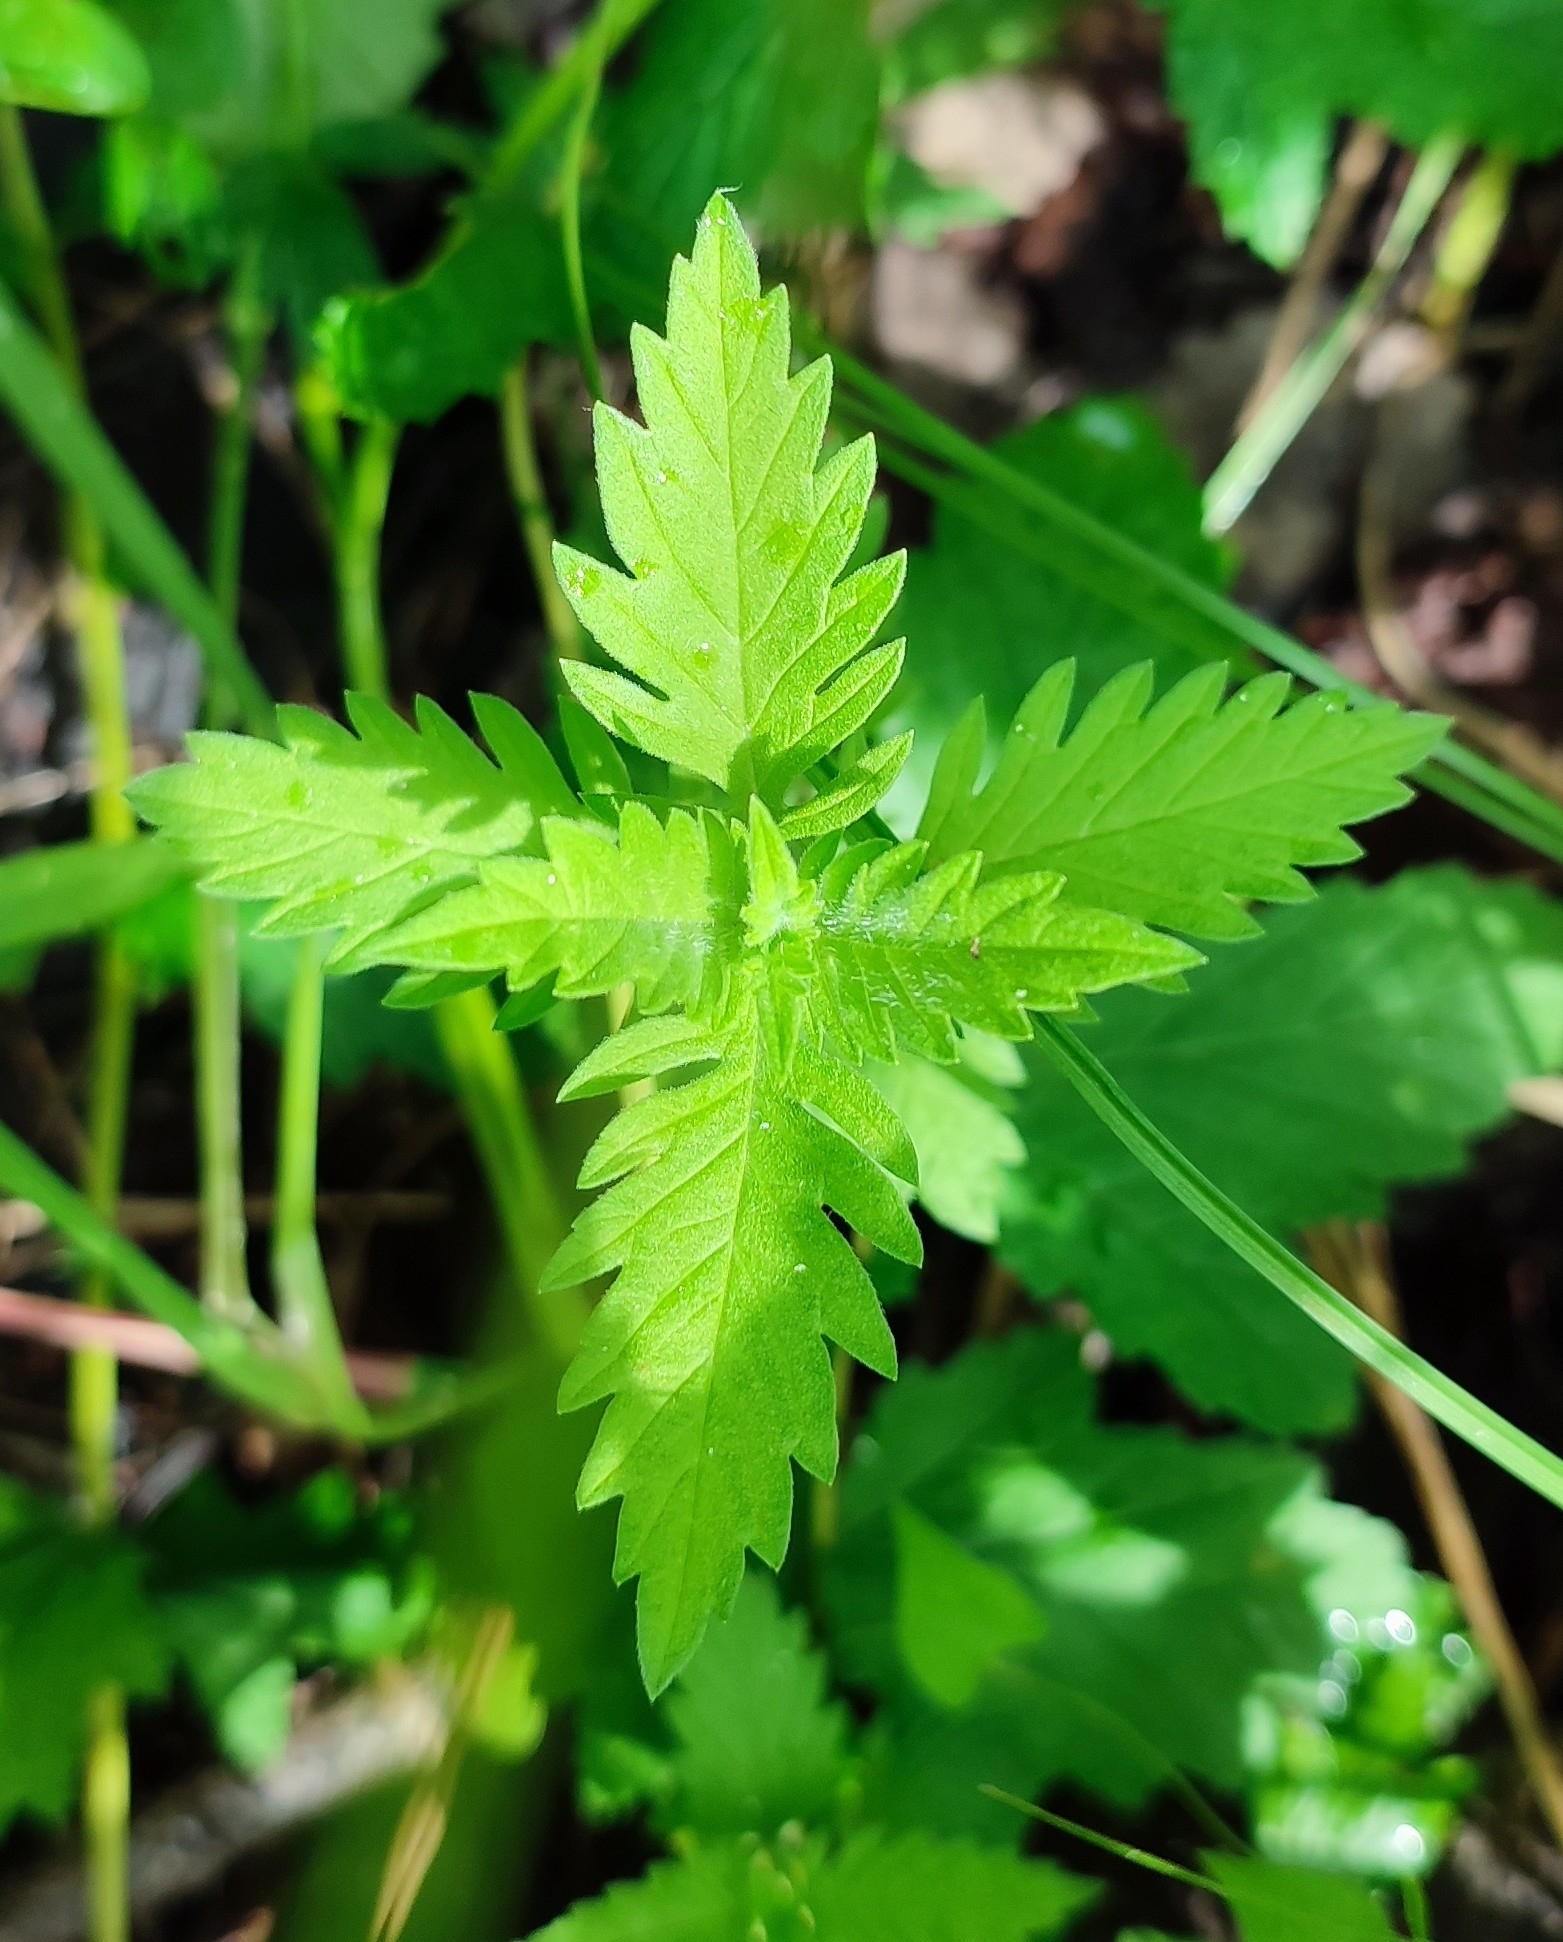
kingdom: Plantae
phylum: Tracheophyta
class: Magnoliopsida
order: Lamiales
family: Lamiaceae
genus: Lycopus
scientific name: Lycopus europaeus
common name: European bugleweed
